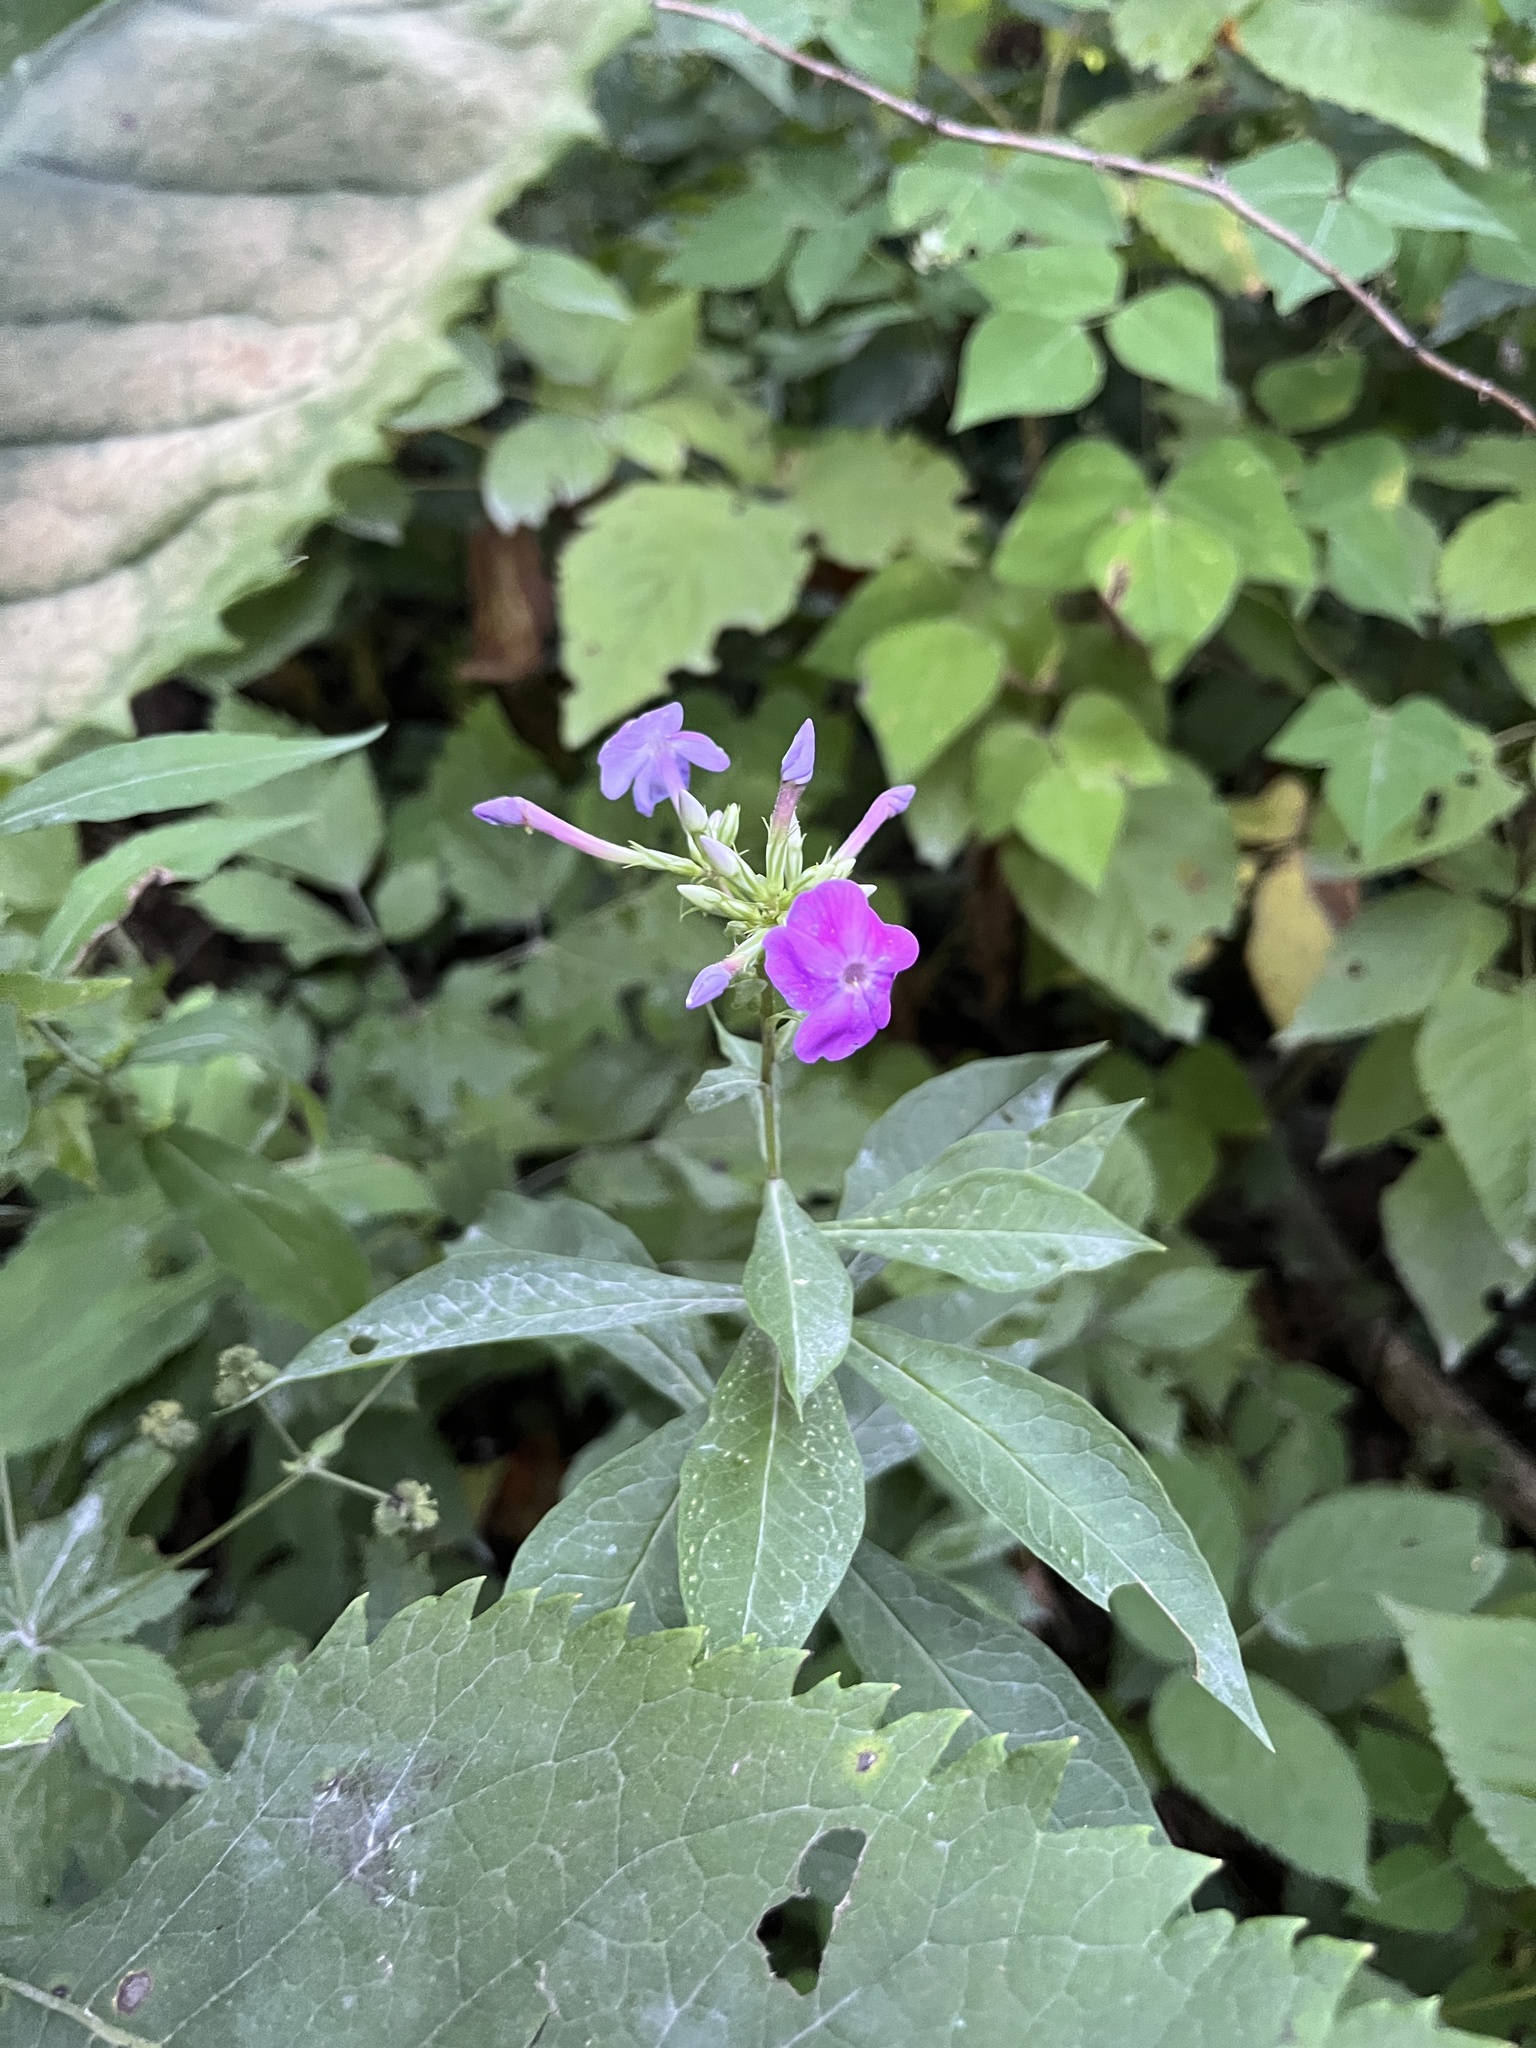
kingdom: Plantae
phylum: Tracheophyta
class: Magnoliopsida
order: Ericales
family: Polemoniaceae
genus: Phlox
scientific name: Phlox paniculata
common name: Fall phlox
